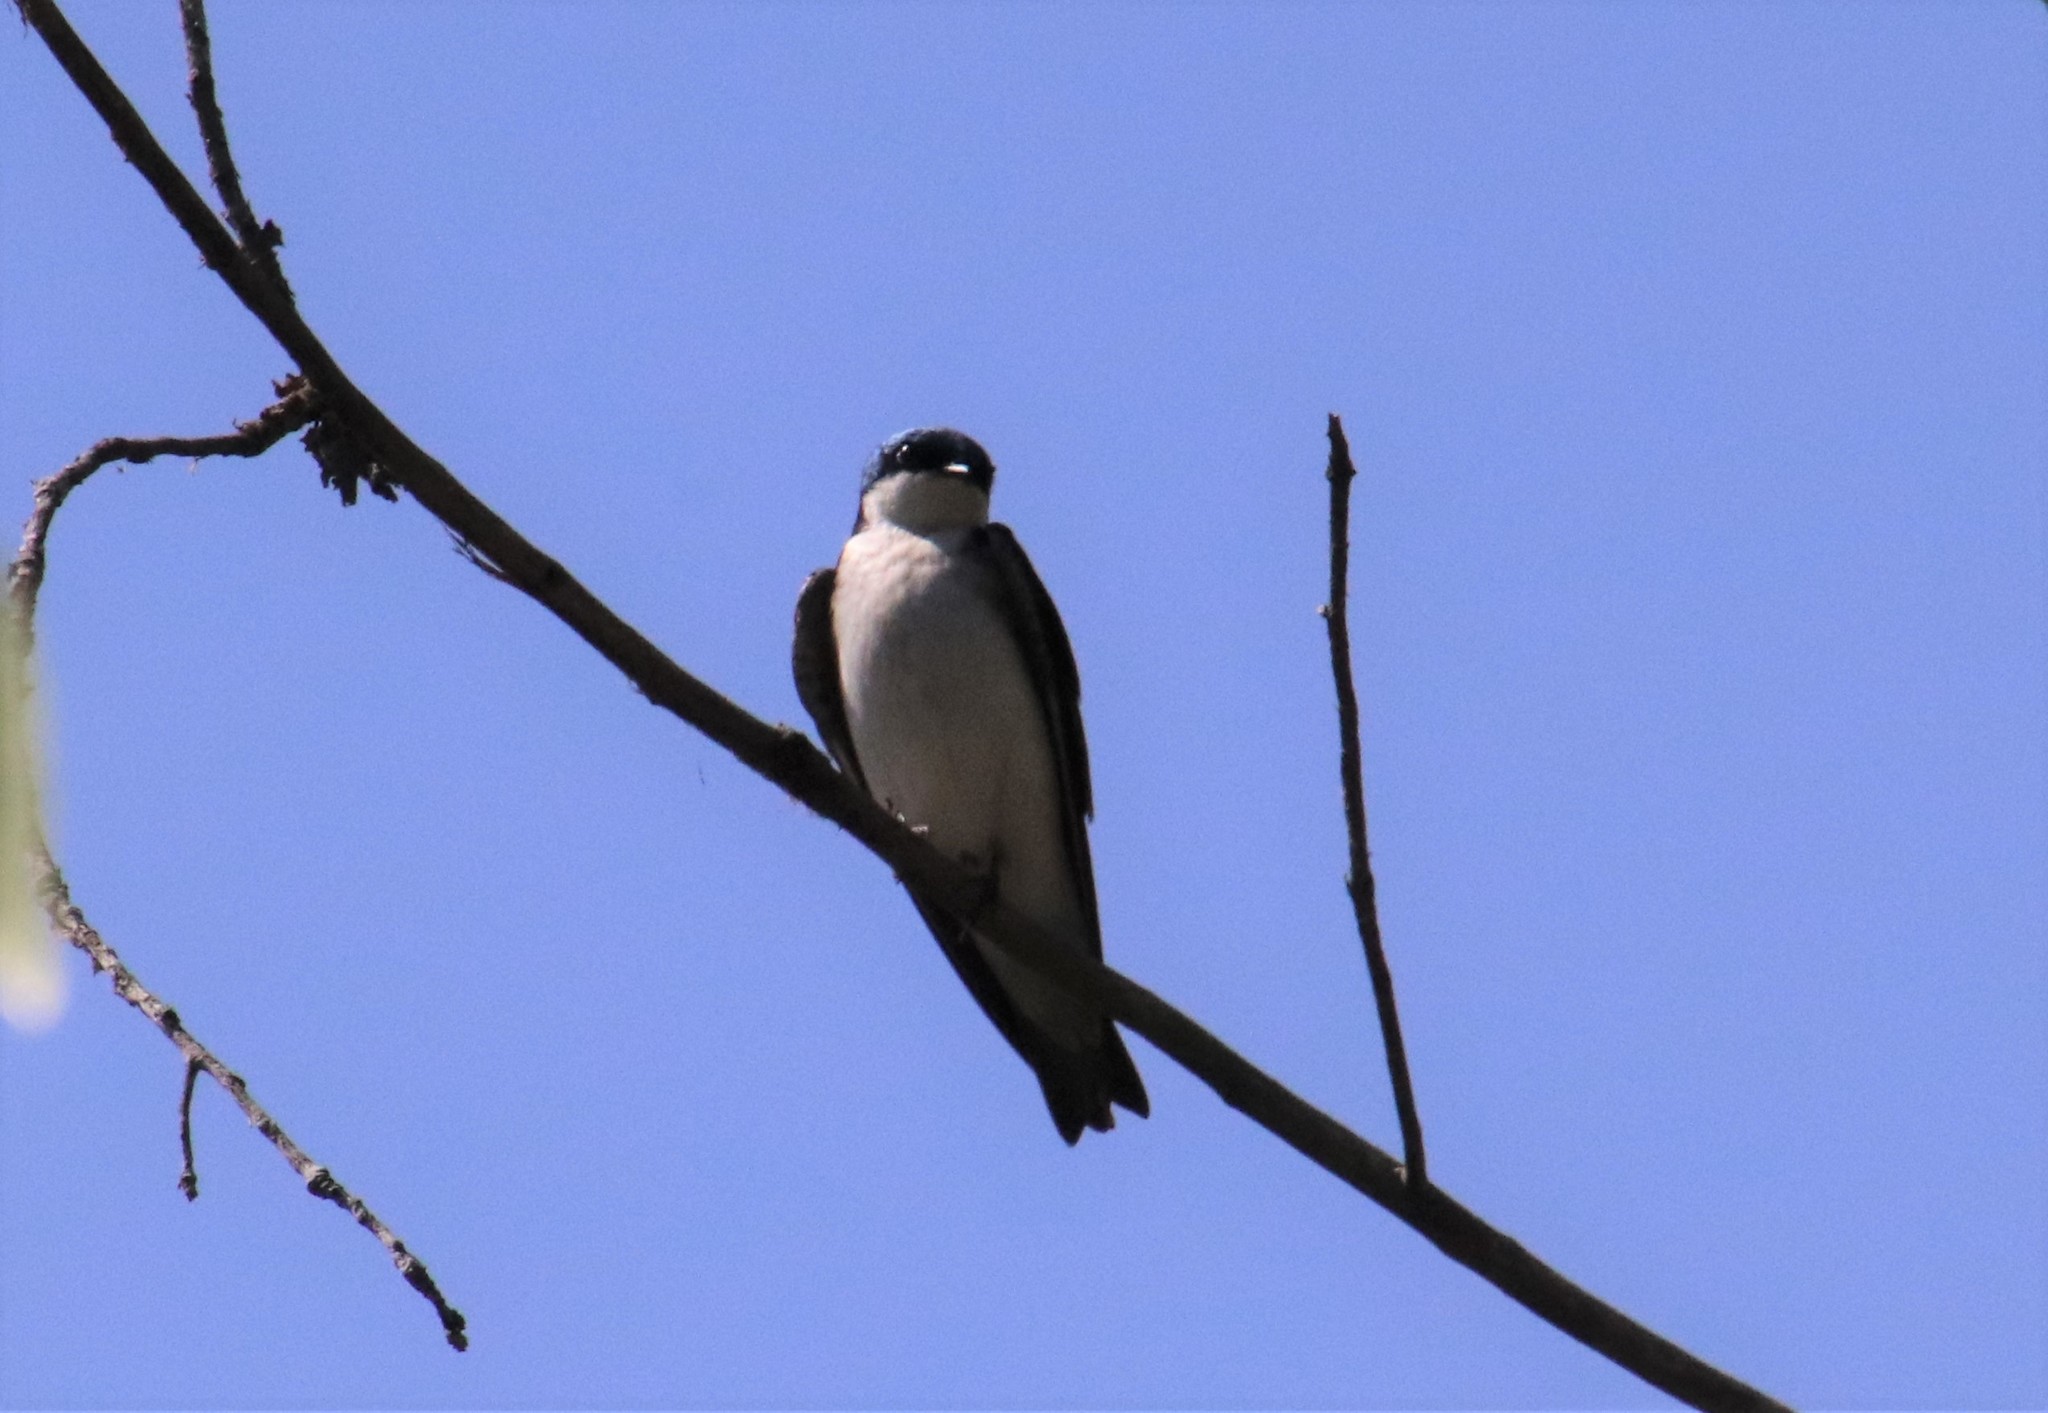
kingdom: Animalia
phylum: Chordata
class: Aves
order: Passeriformes
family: Hirundinidae
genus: Tachycineta
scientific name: Tachycineta bicolor
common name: Tree swallow
